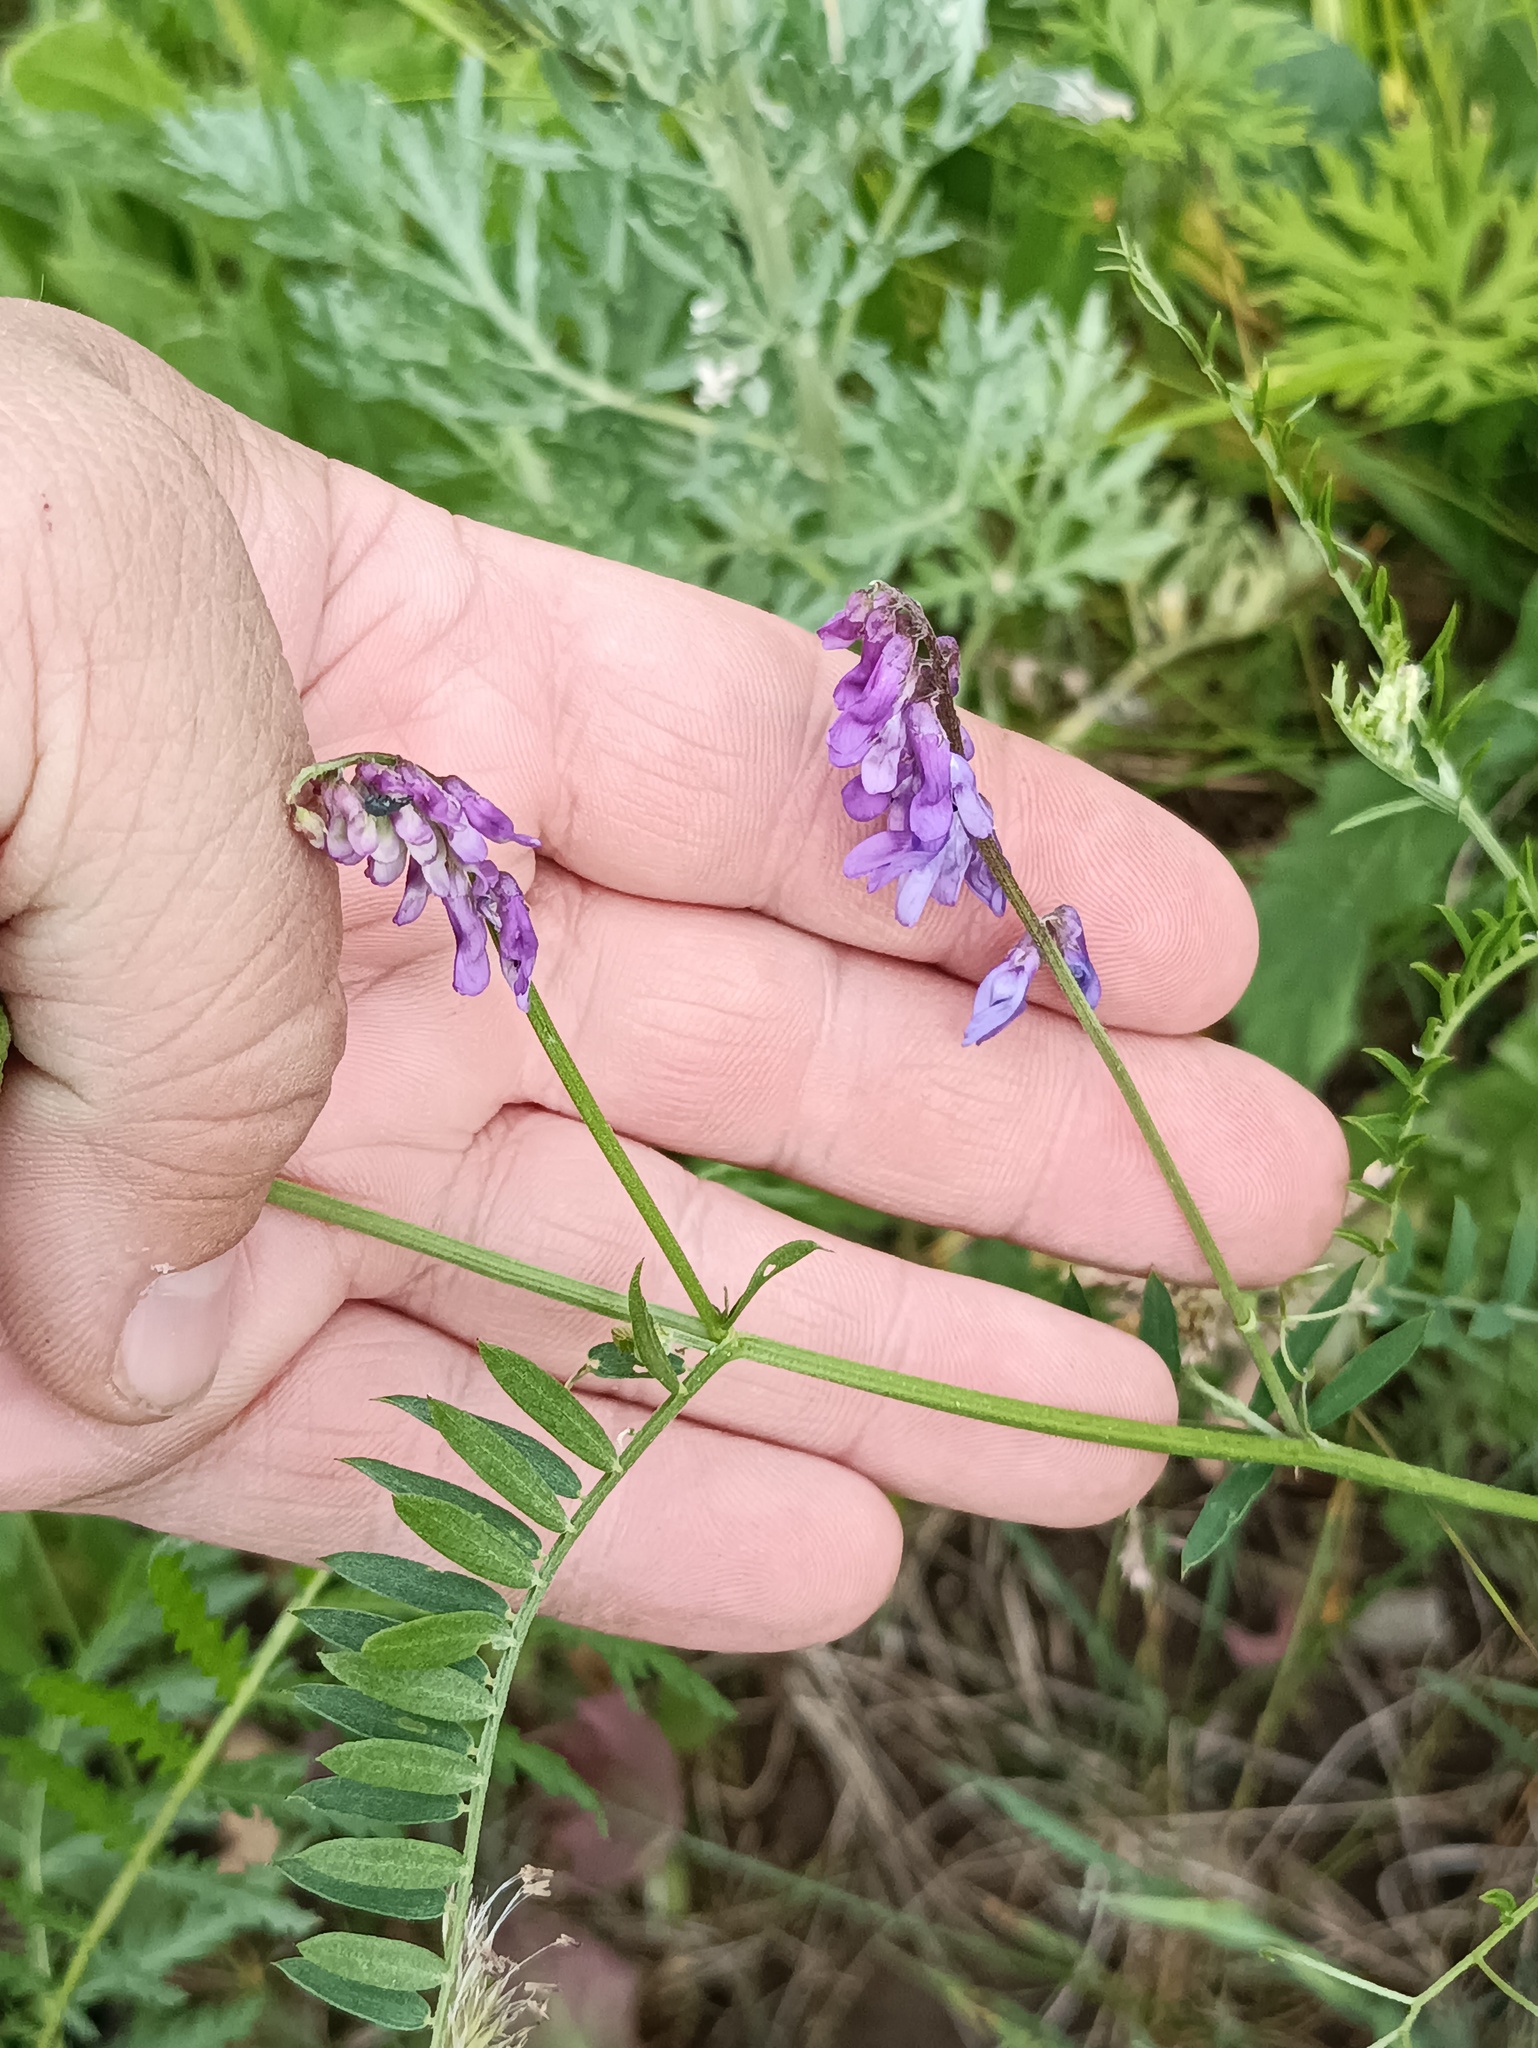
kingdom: Plantae
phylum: Tracheophyta
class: Magnoliopsida
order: Fabales
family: Fabaceae
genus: Vicia
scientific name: Vicia cracca
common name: Bird vetch
